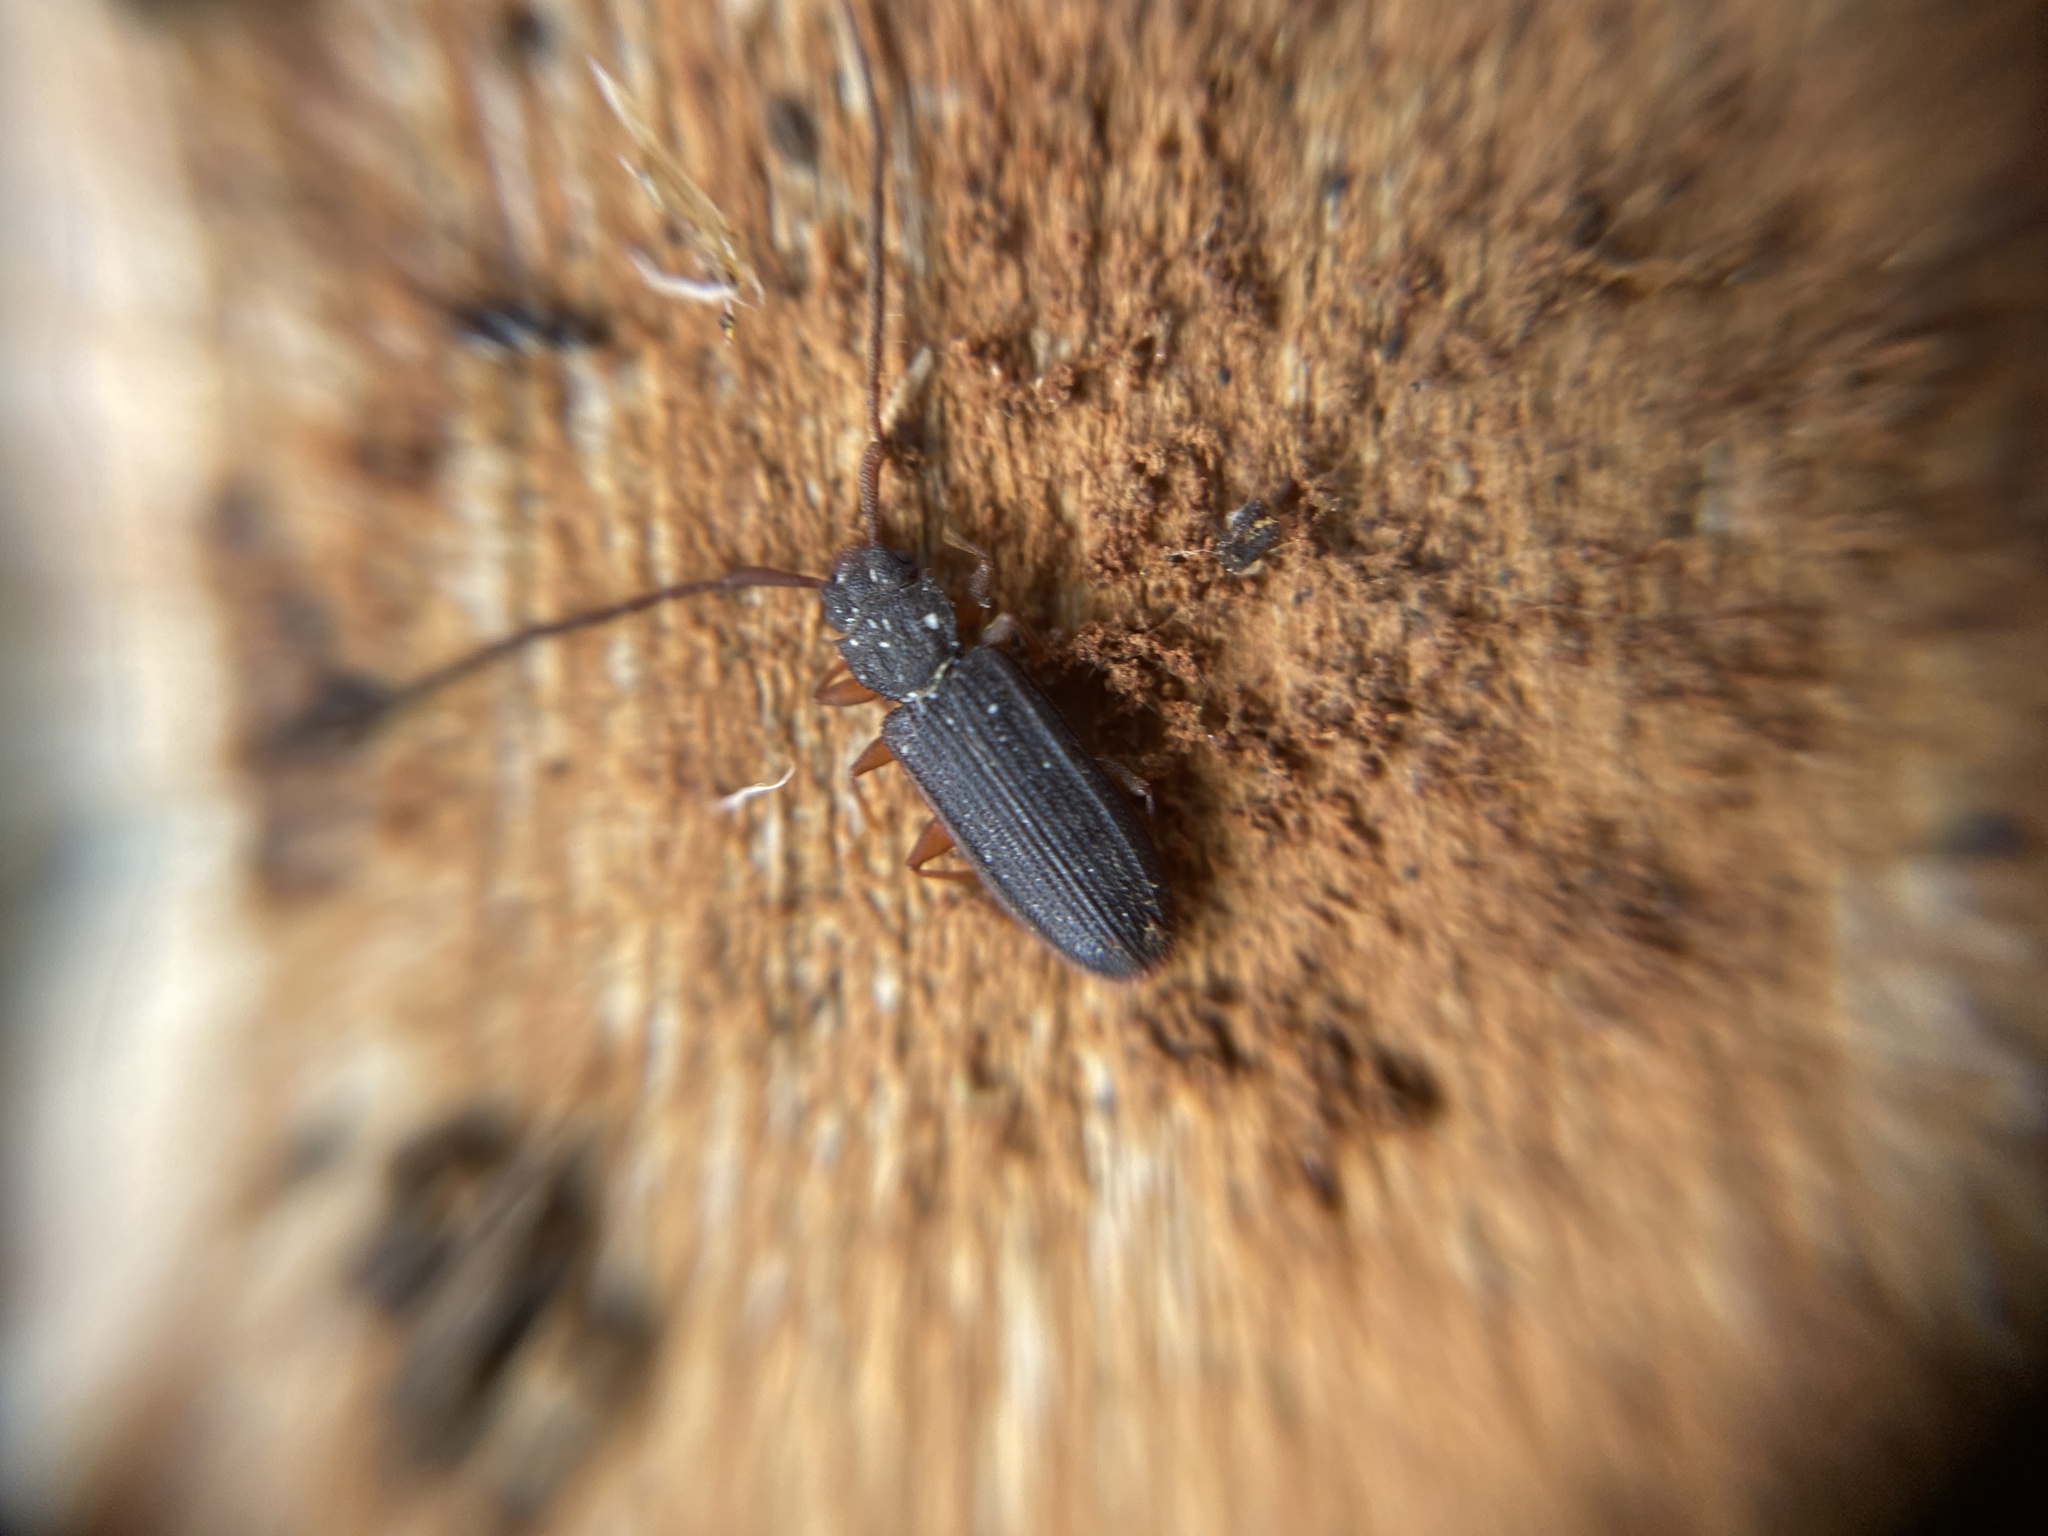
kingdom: Animalia
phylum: Arthropoda
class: Insecta
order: Coleoptera
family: Silvanidae
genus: Uleiota
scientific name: Uleiota planatus
